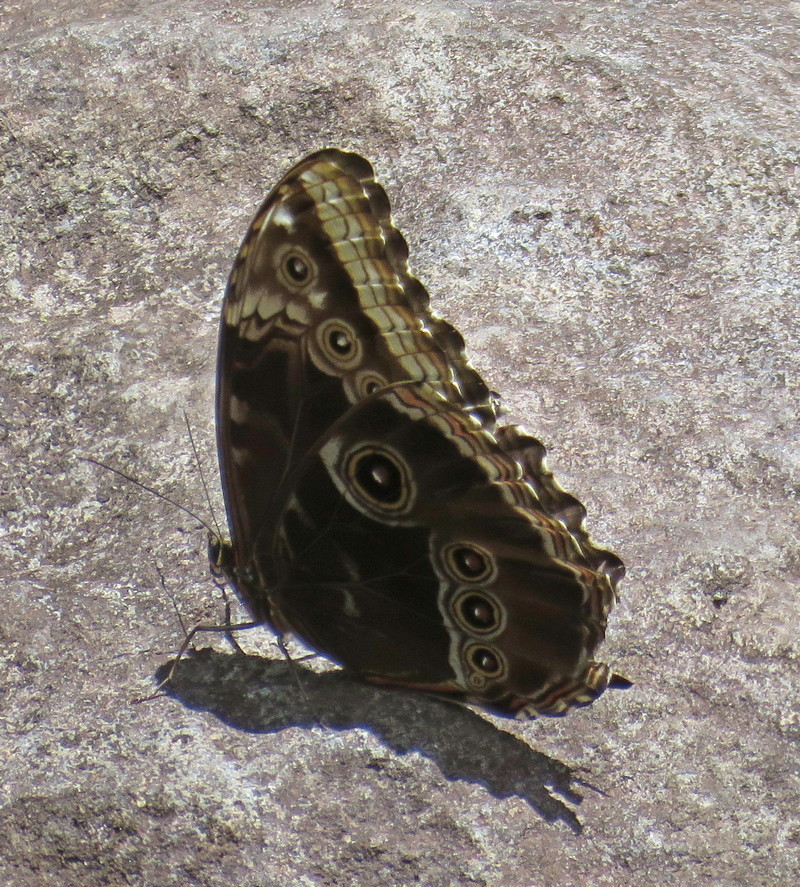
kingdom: Animalia
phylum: Arthropoda
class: Insecta
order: Lepidoptera
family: Nymphalidae
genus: Morpho
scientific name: Morpho helenor
